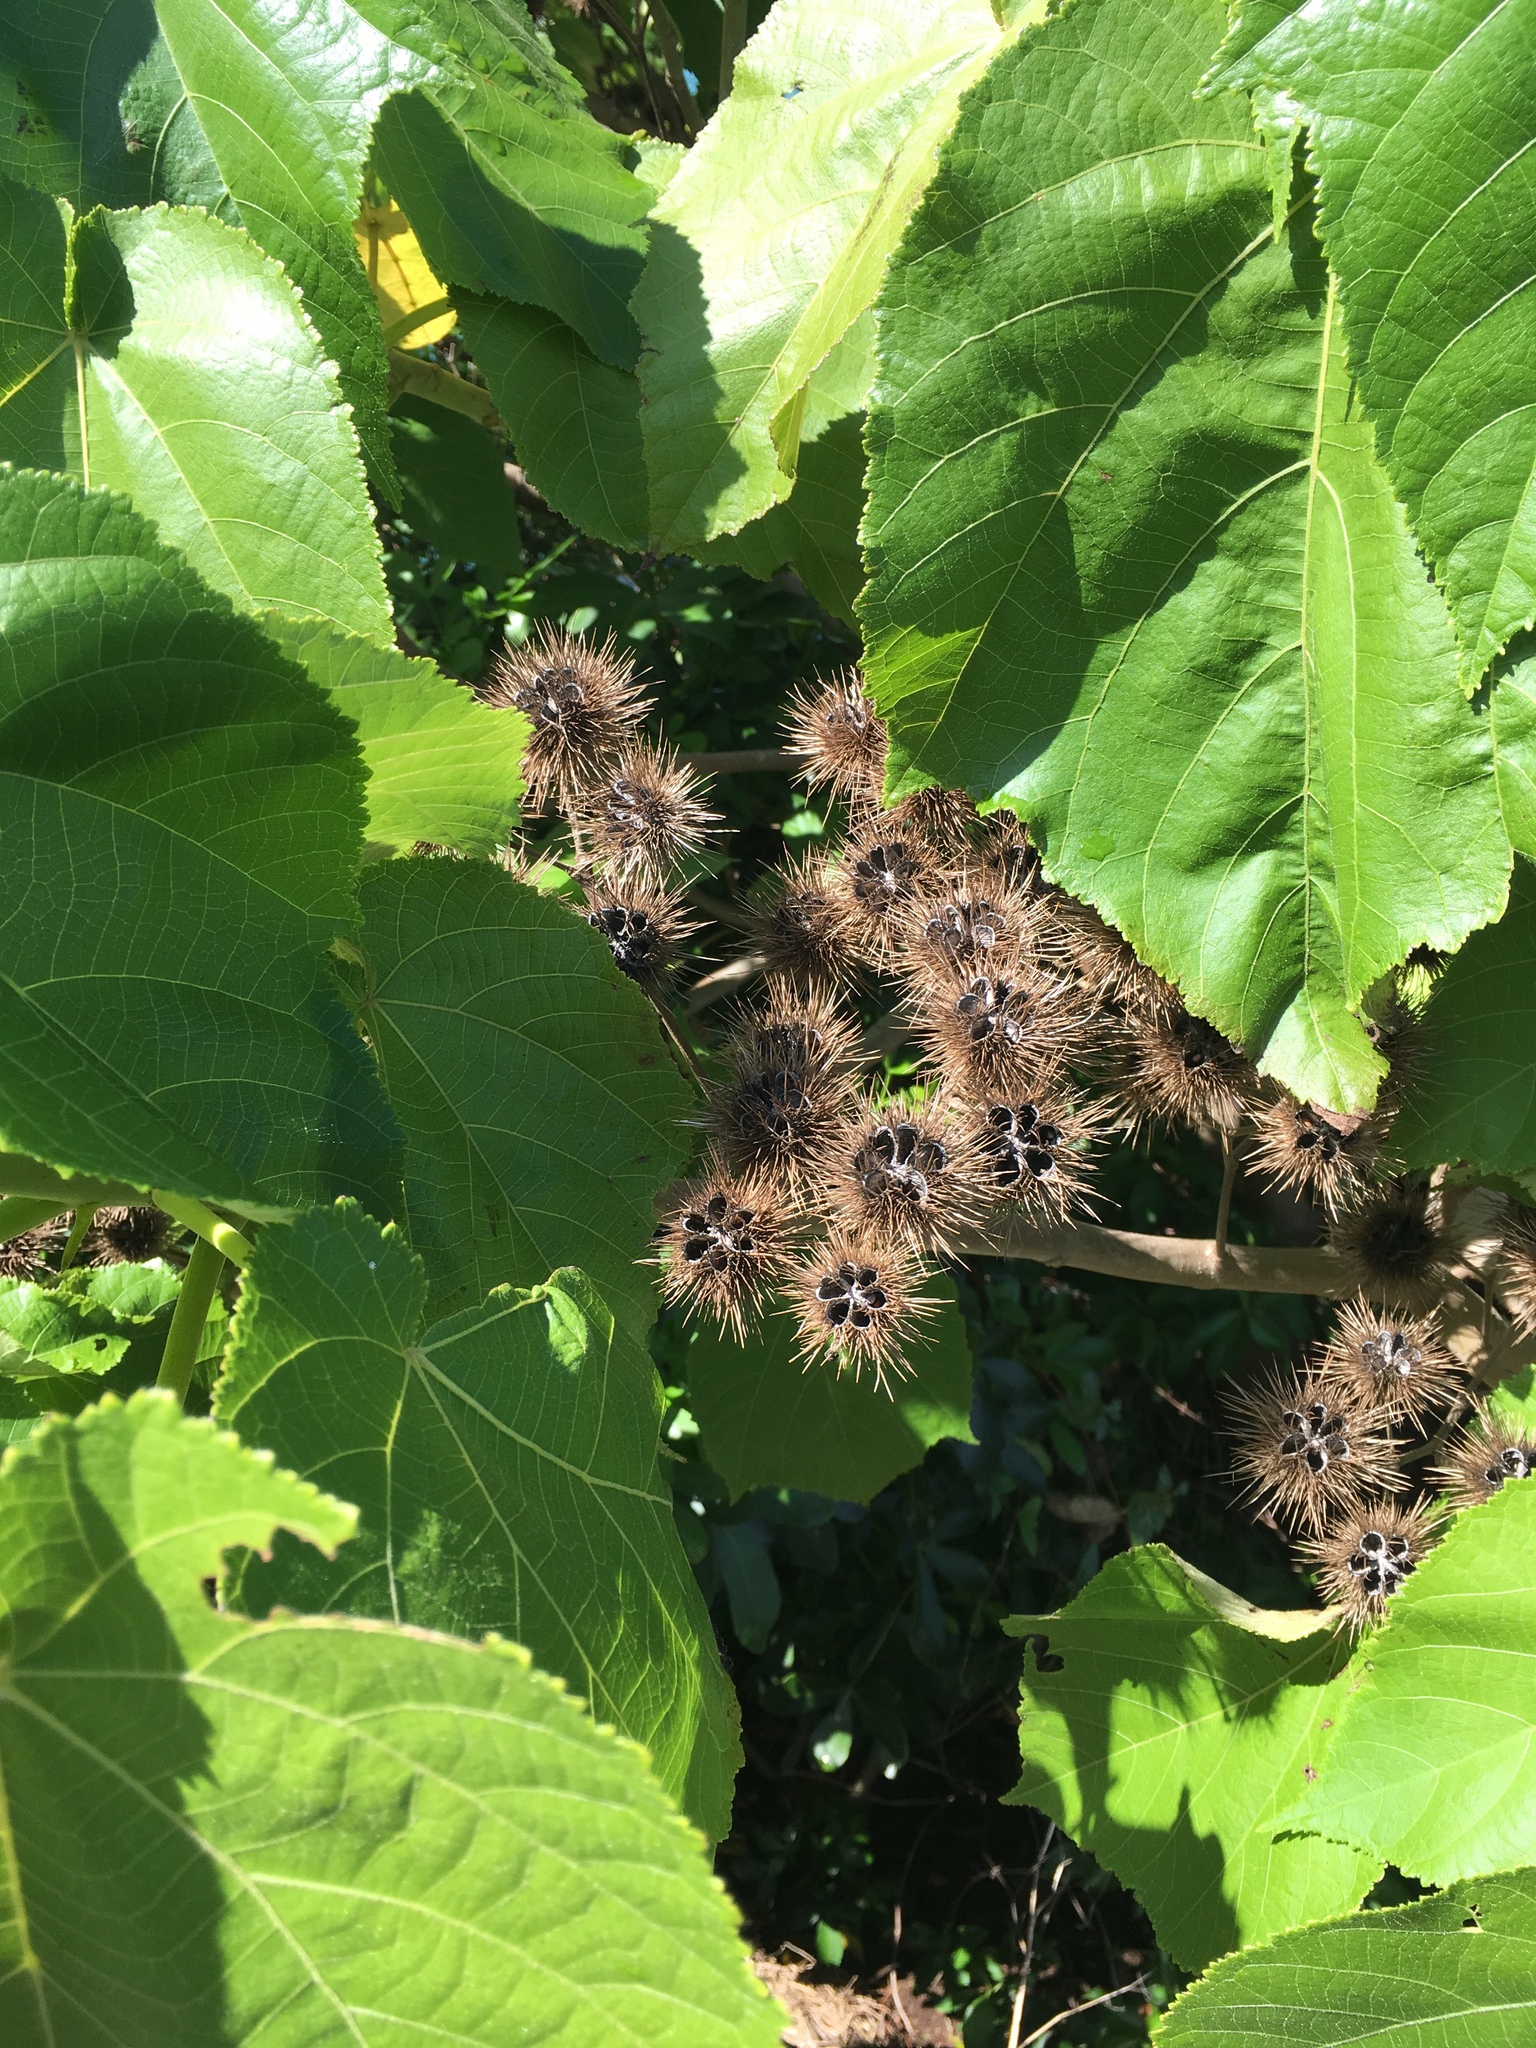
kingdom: Plantae
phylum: Tracheophyta
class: Magnoliopsida
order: Malvales
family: Malvaceae
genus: Entelea
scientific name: Entelea arborescens
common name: New zealand-mulberry
